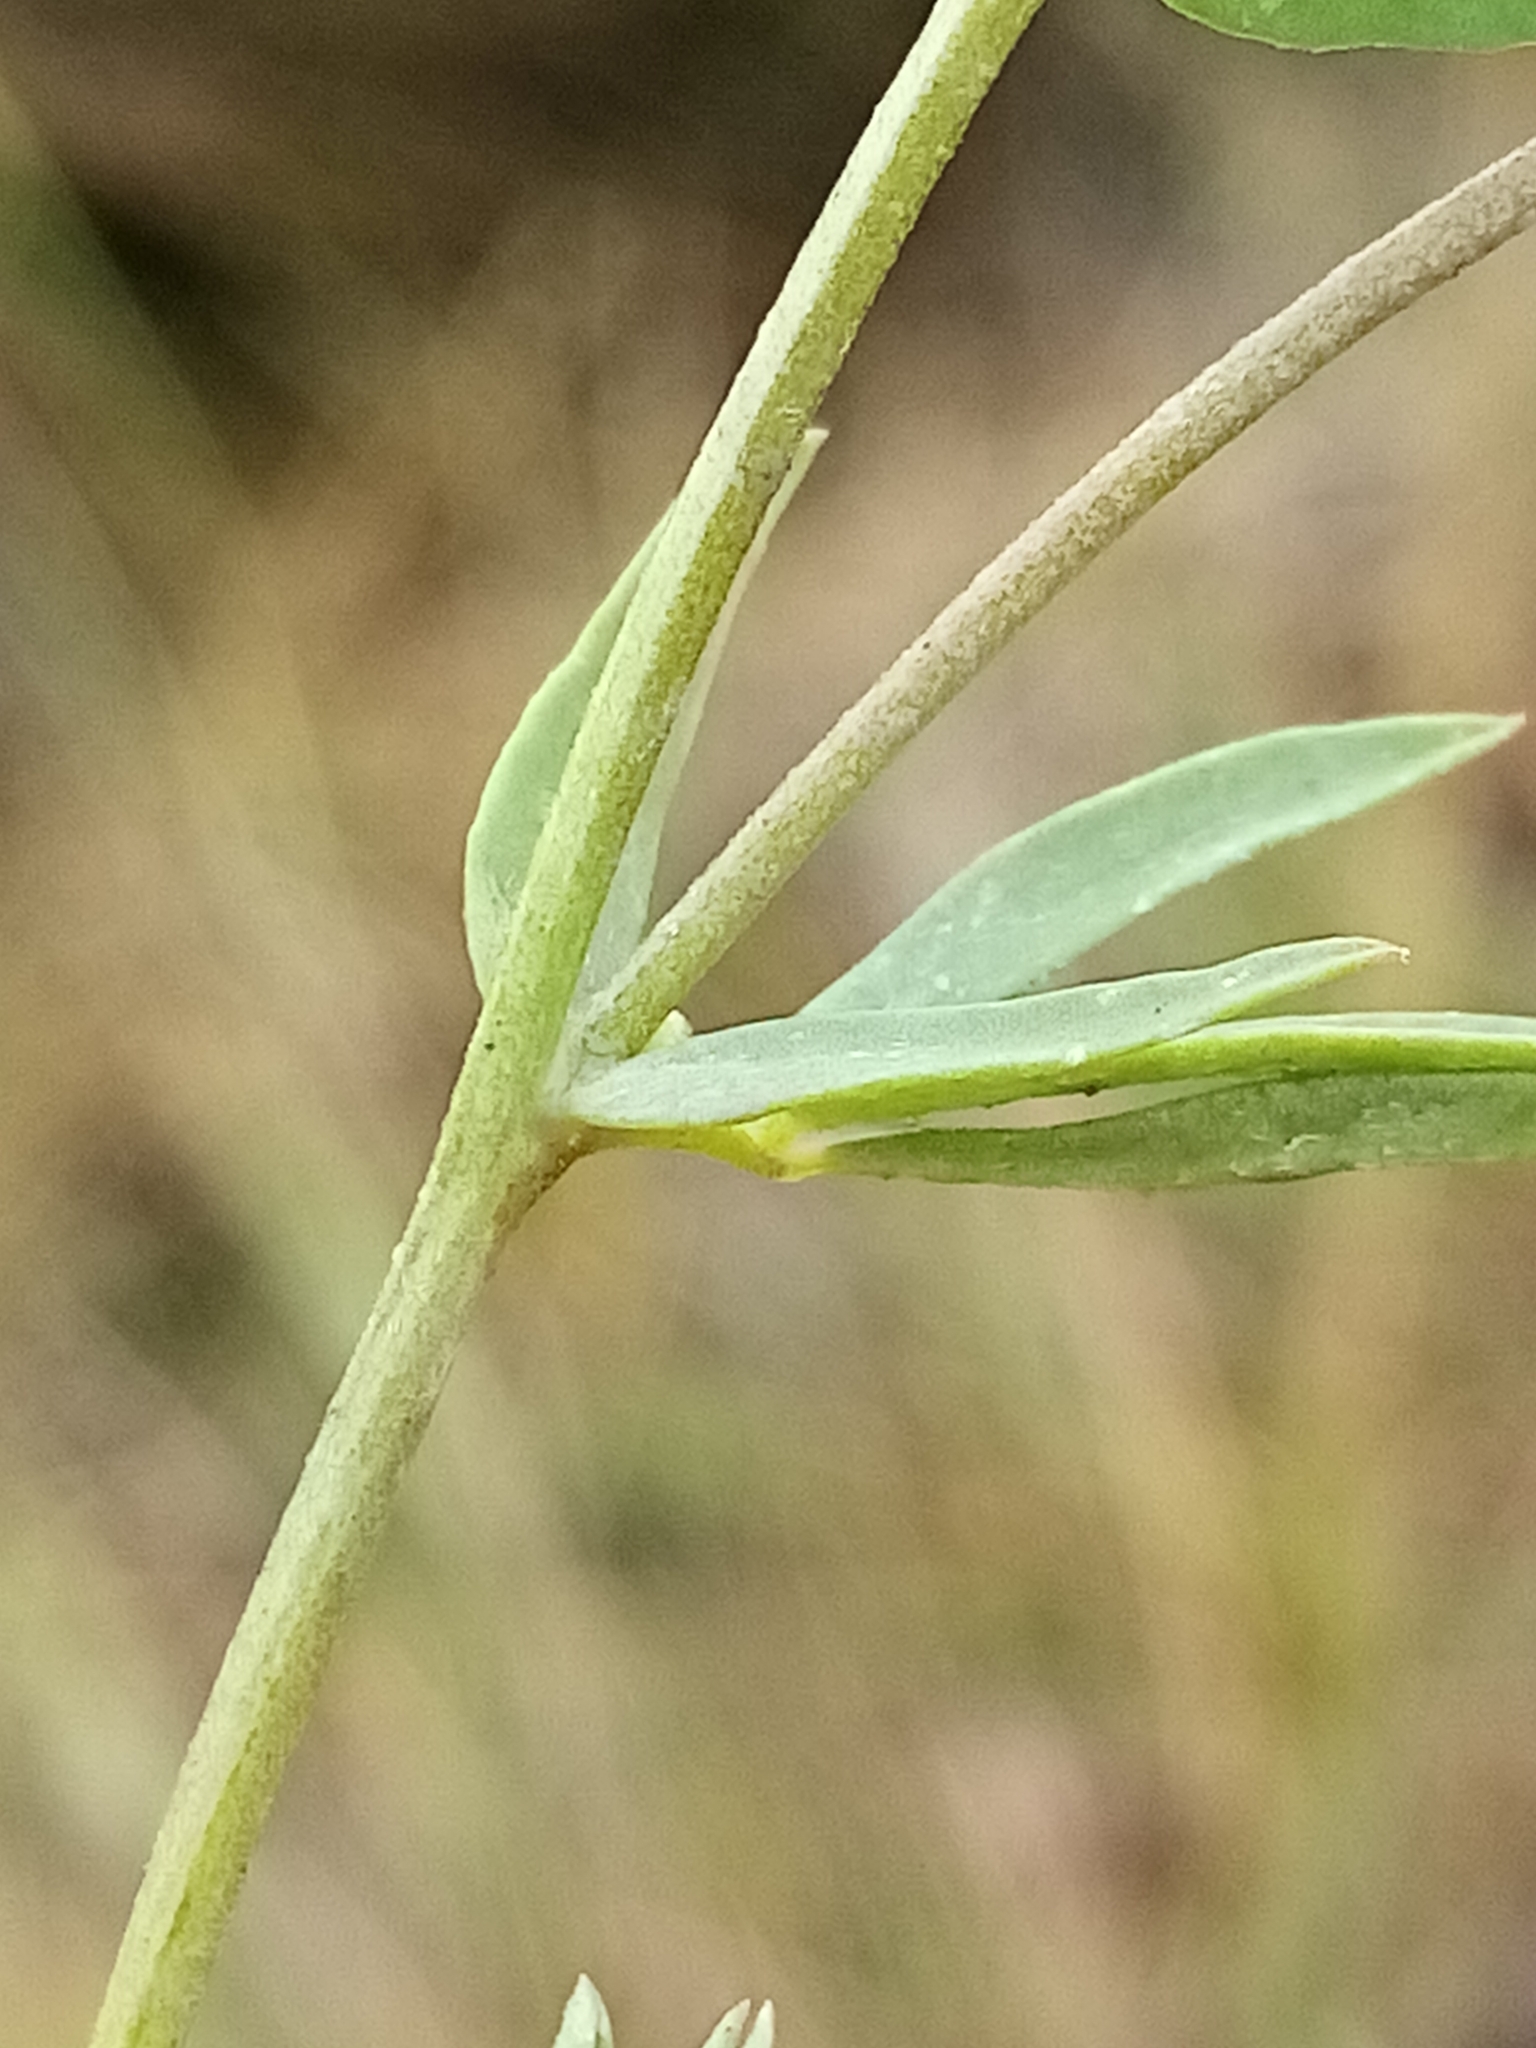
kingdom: Plantae
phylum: Tracheophyta
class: Magnoliopsida
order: Fabales
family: Fabaceae
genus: Lotus
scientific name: Lotus tenuis
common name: Narrow-leaved bird's-foot-trefoil
